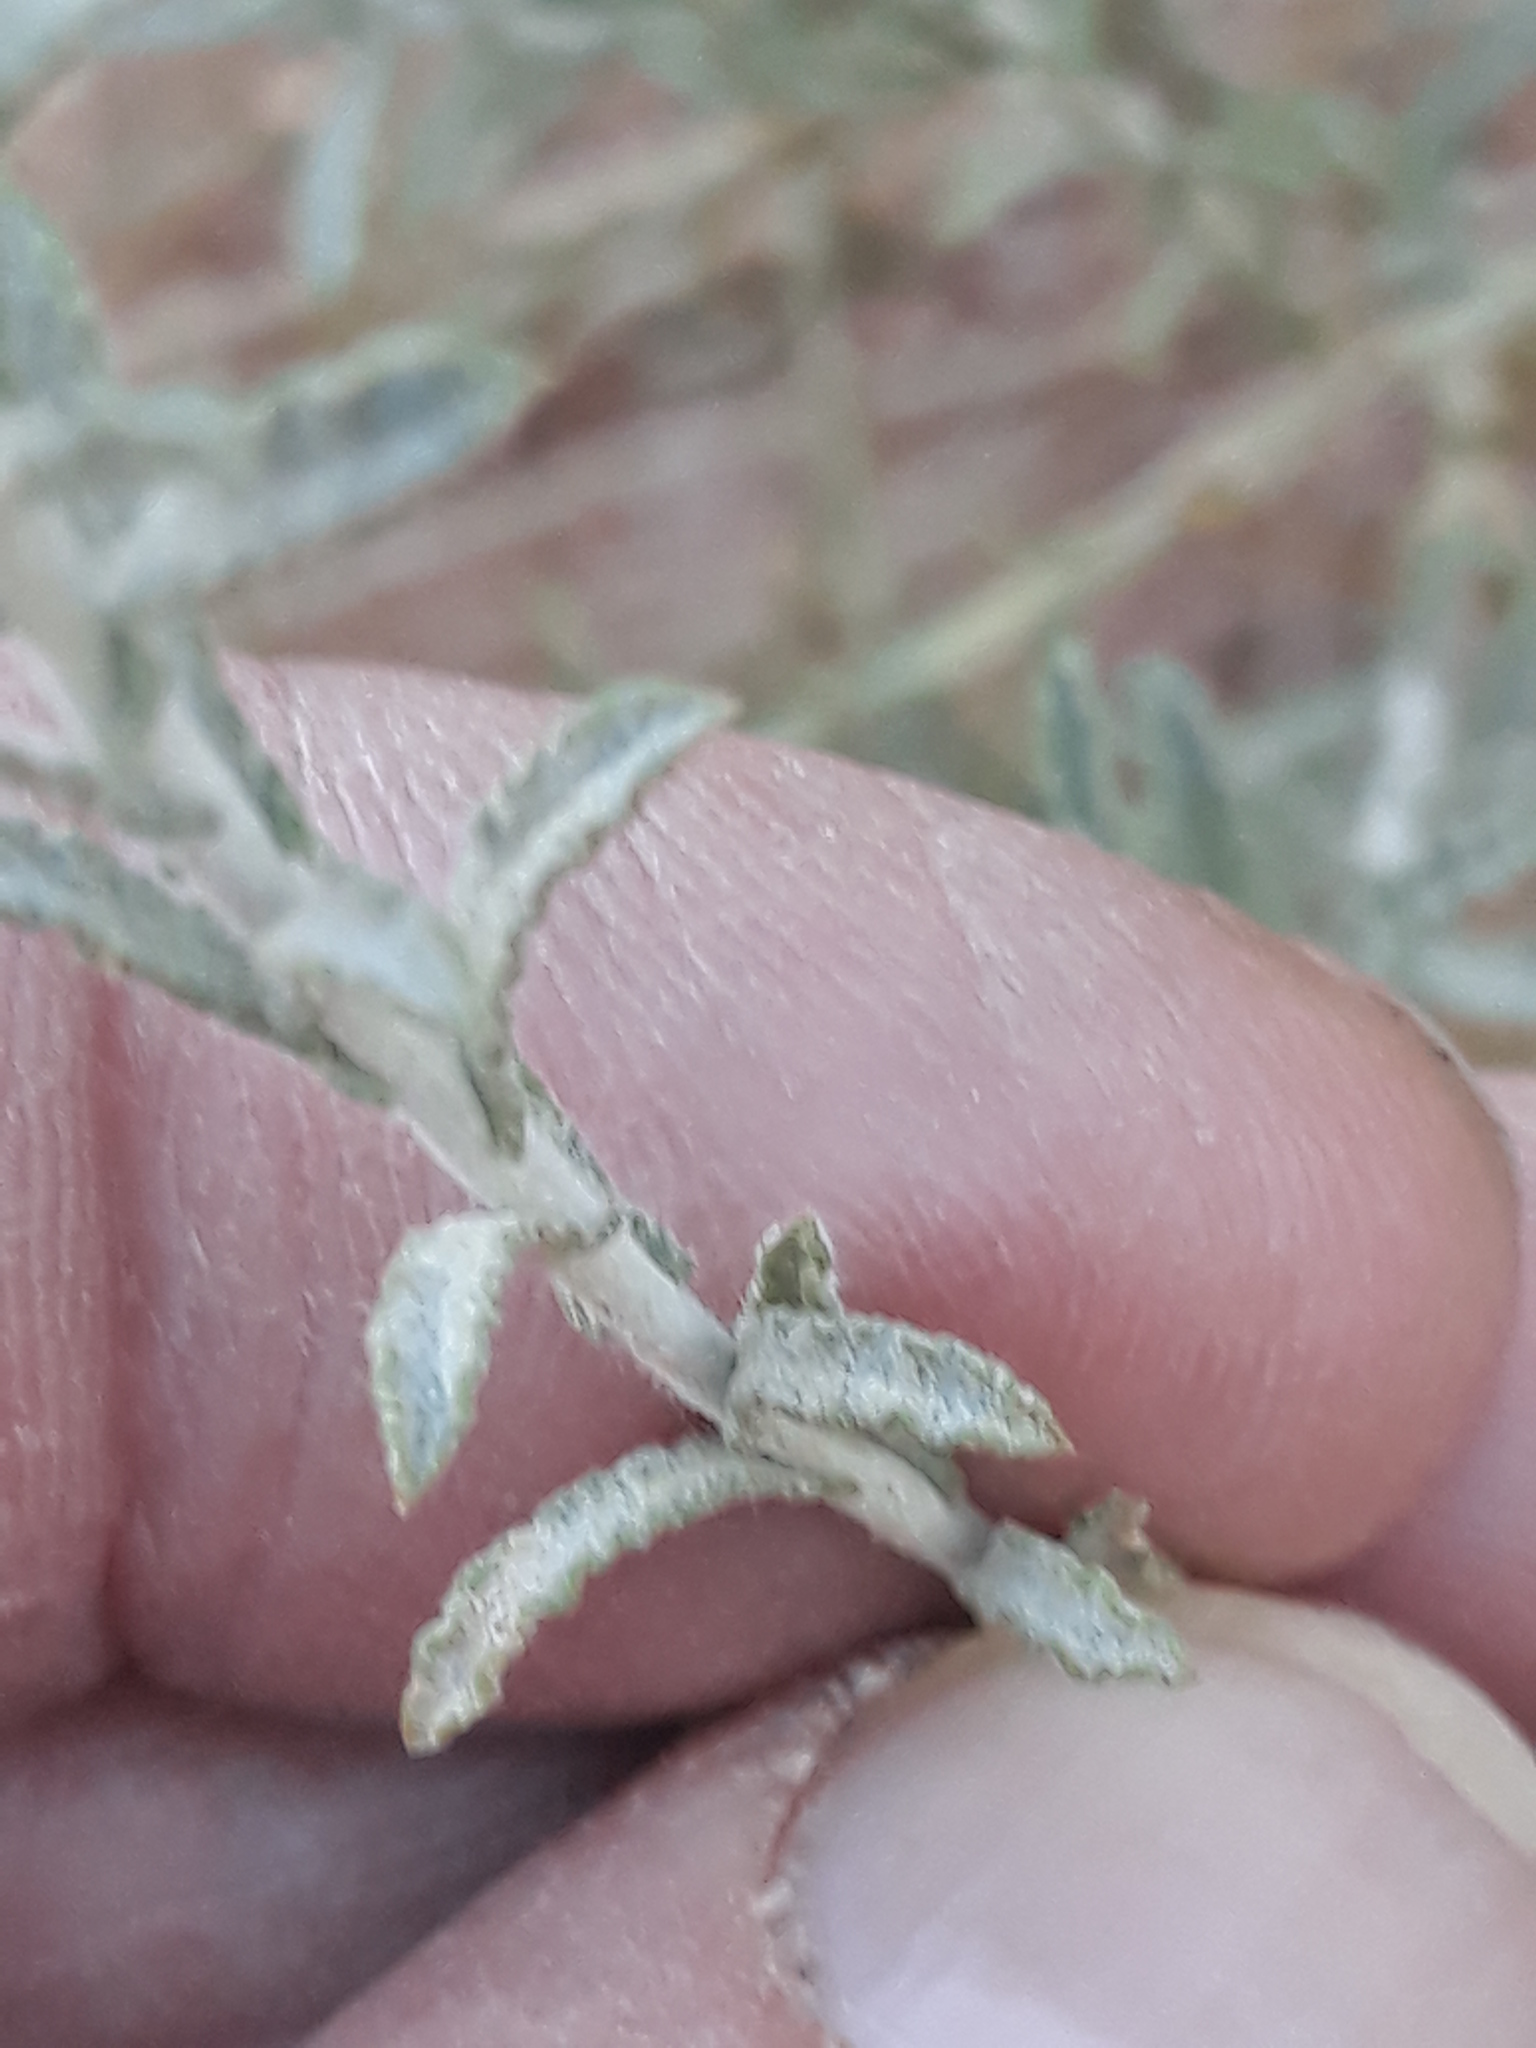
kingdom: Plantae
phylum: Tracheophyta
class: Magnoliopsida
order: Asterales
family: Asteraceae
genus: Pulicaria
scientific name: Pulicaria undulata
